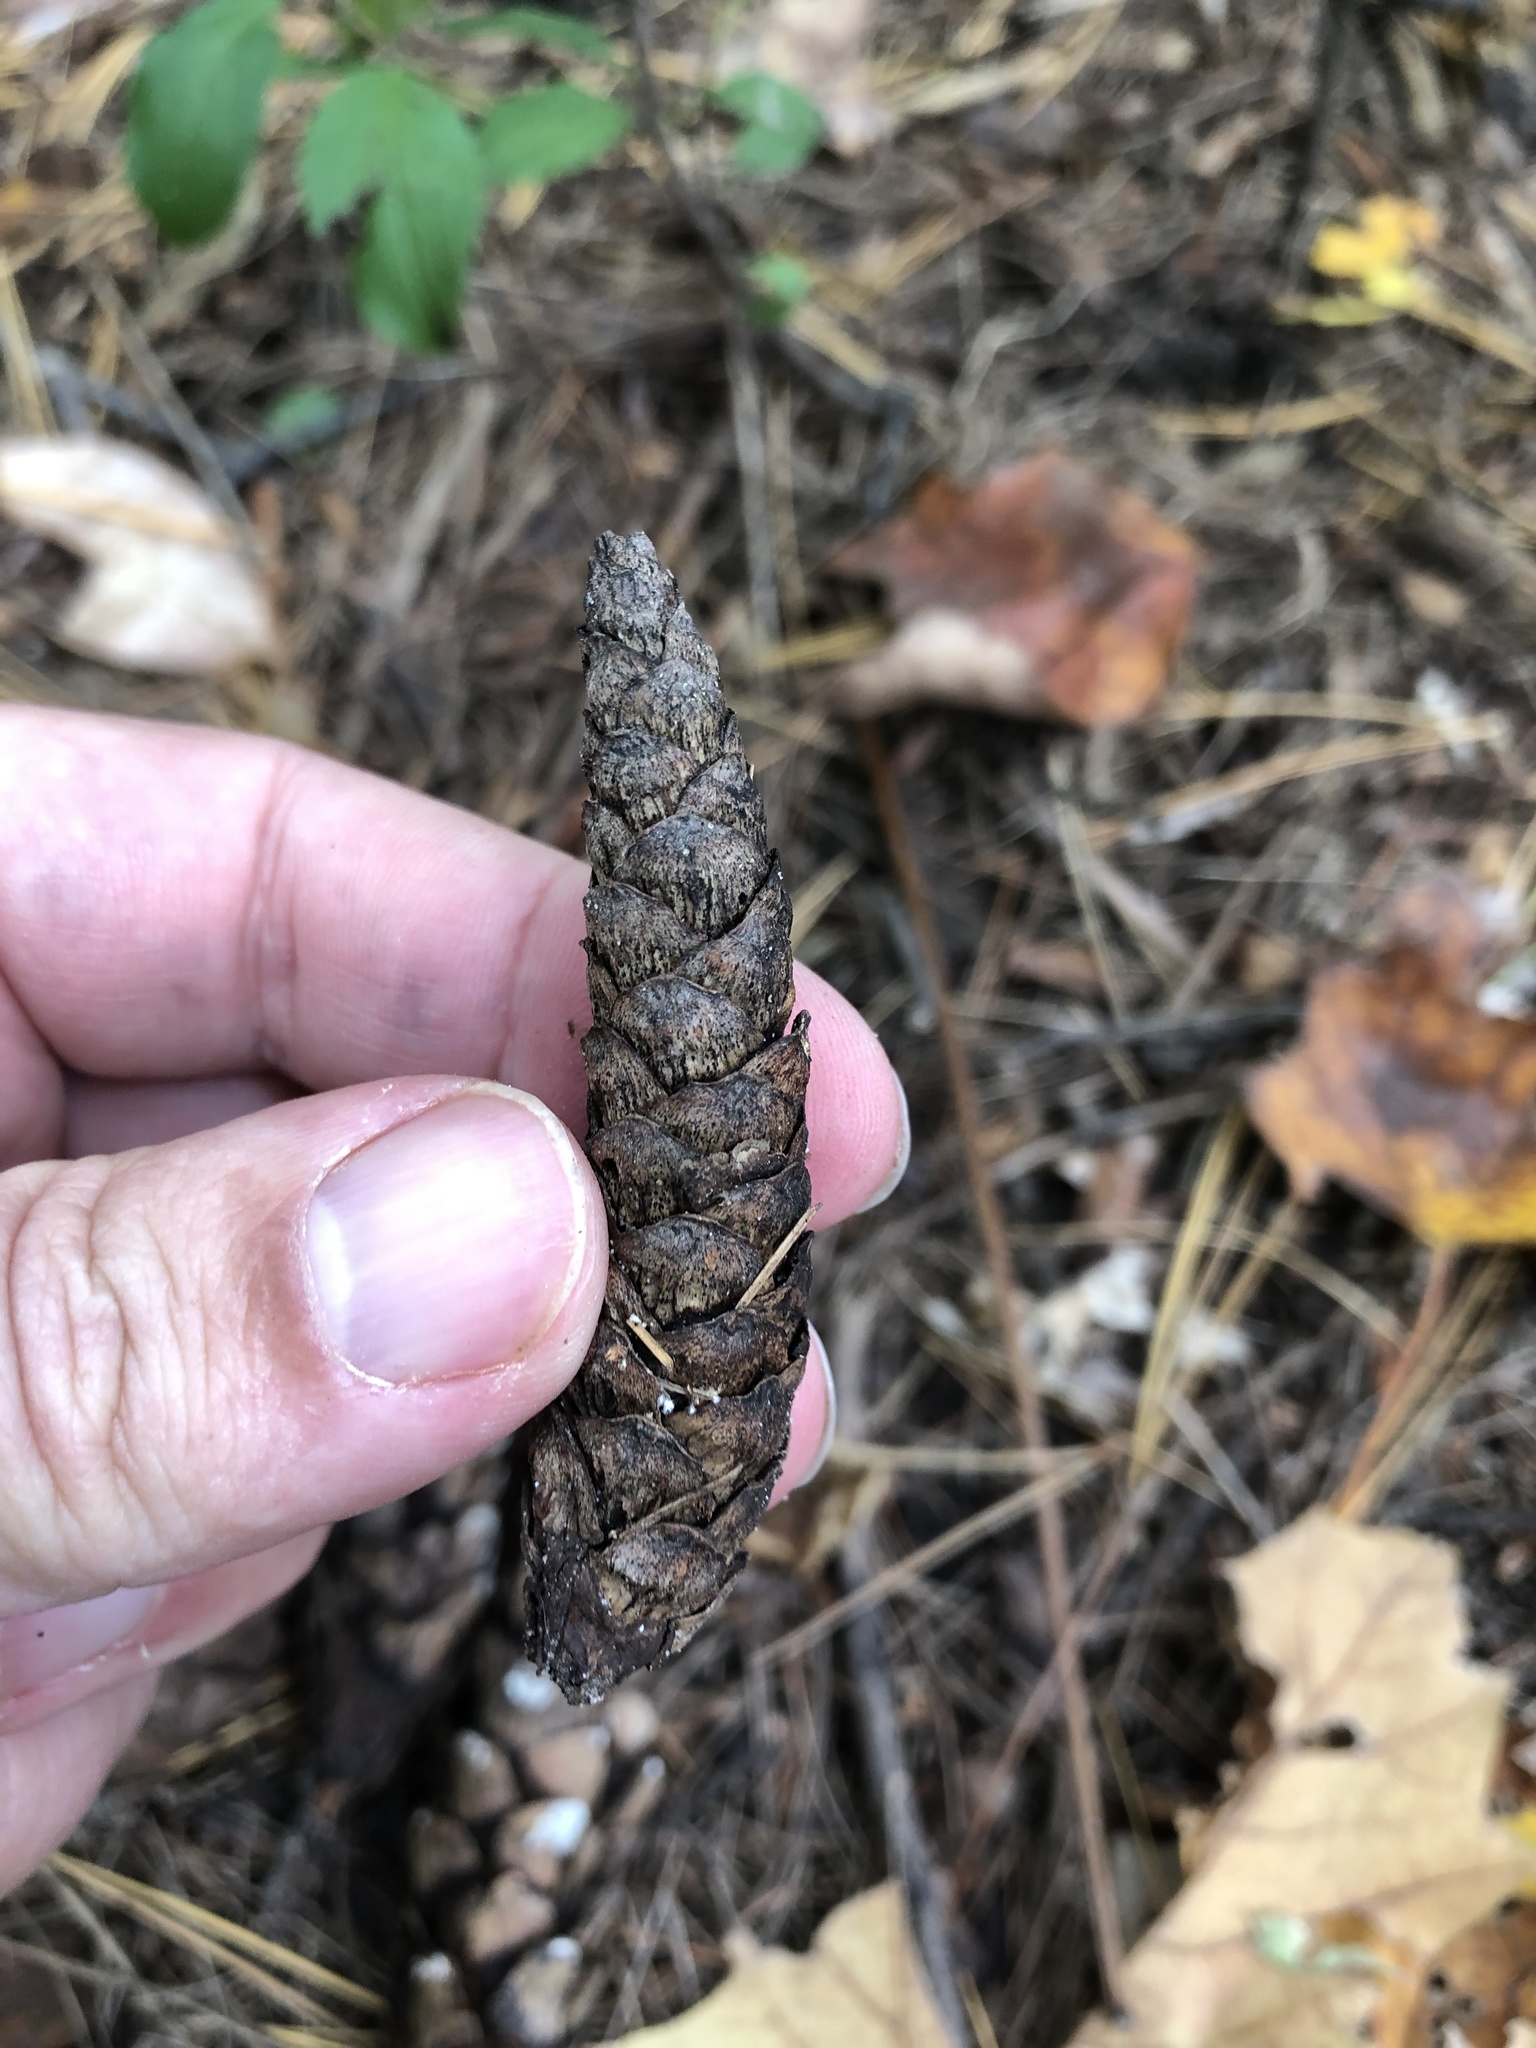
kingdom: Plantae
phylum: Tracheophyta
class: Pinopsida
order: Pinales
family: Pinaceae
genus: Pinus
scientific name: Pinus strobus
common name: Weymouth pine
